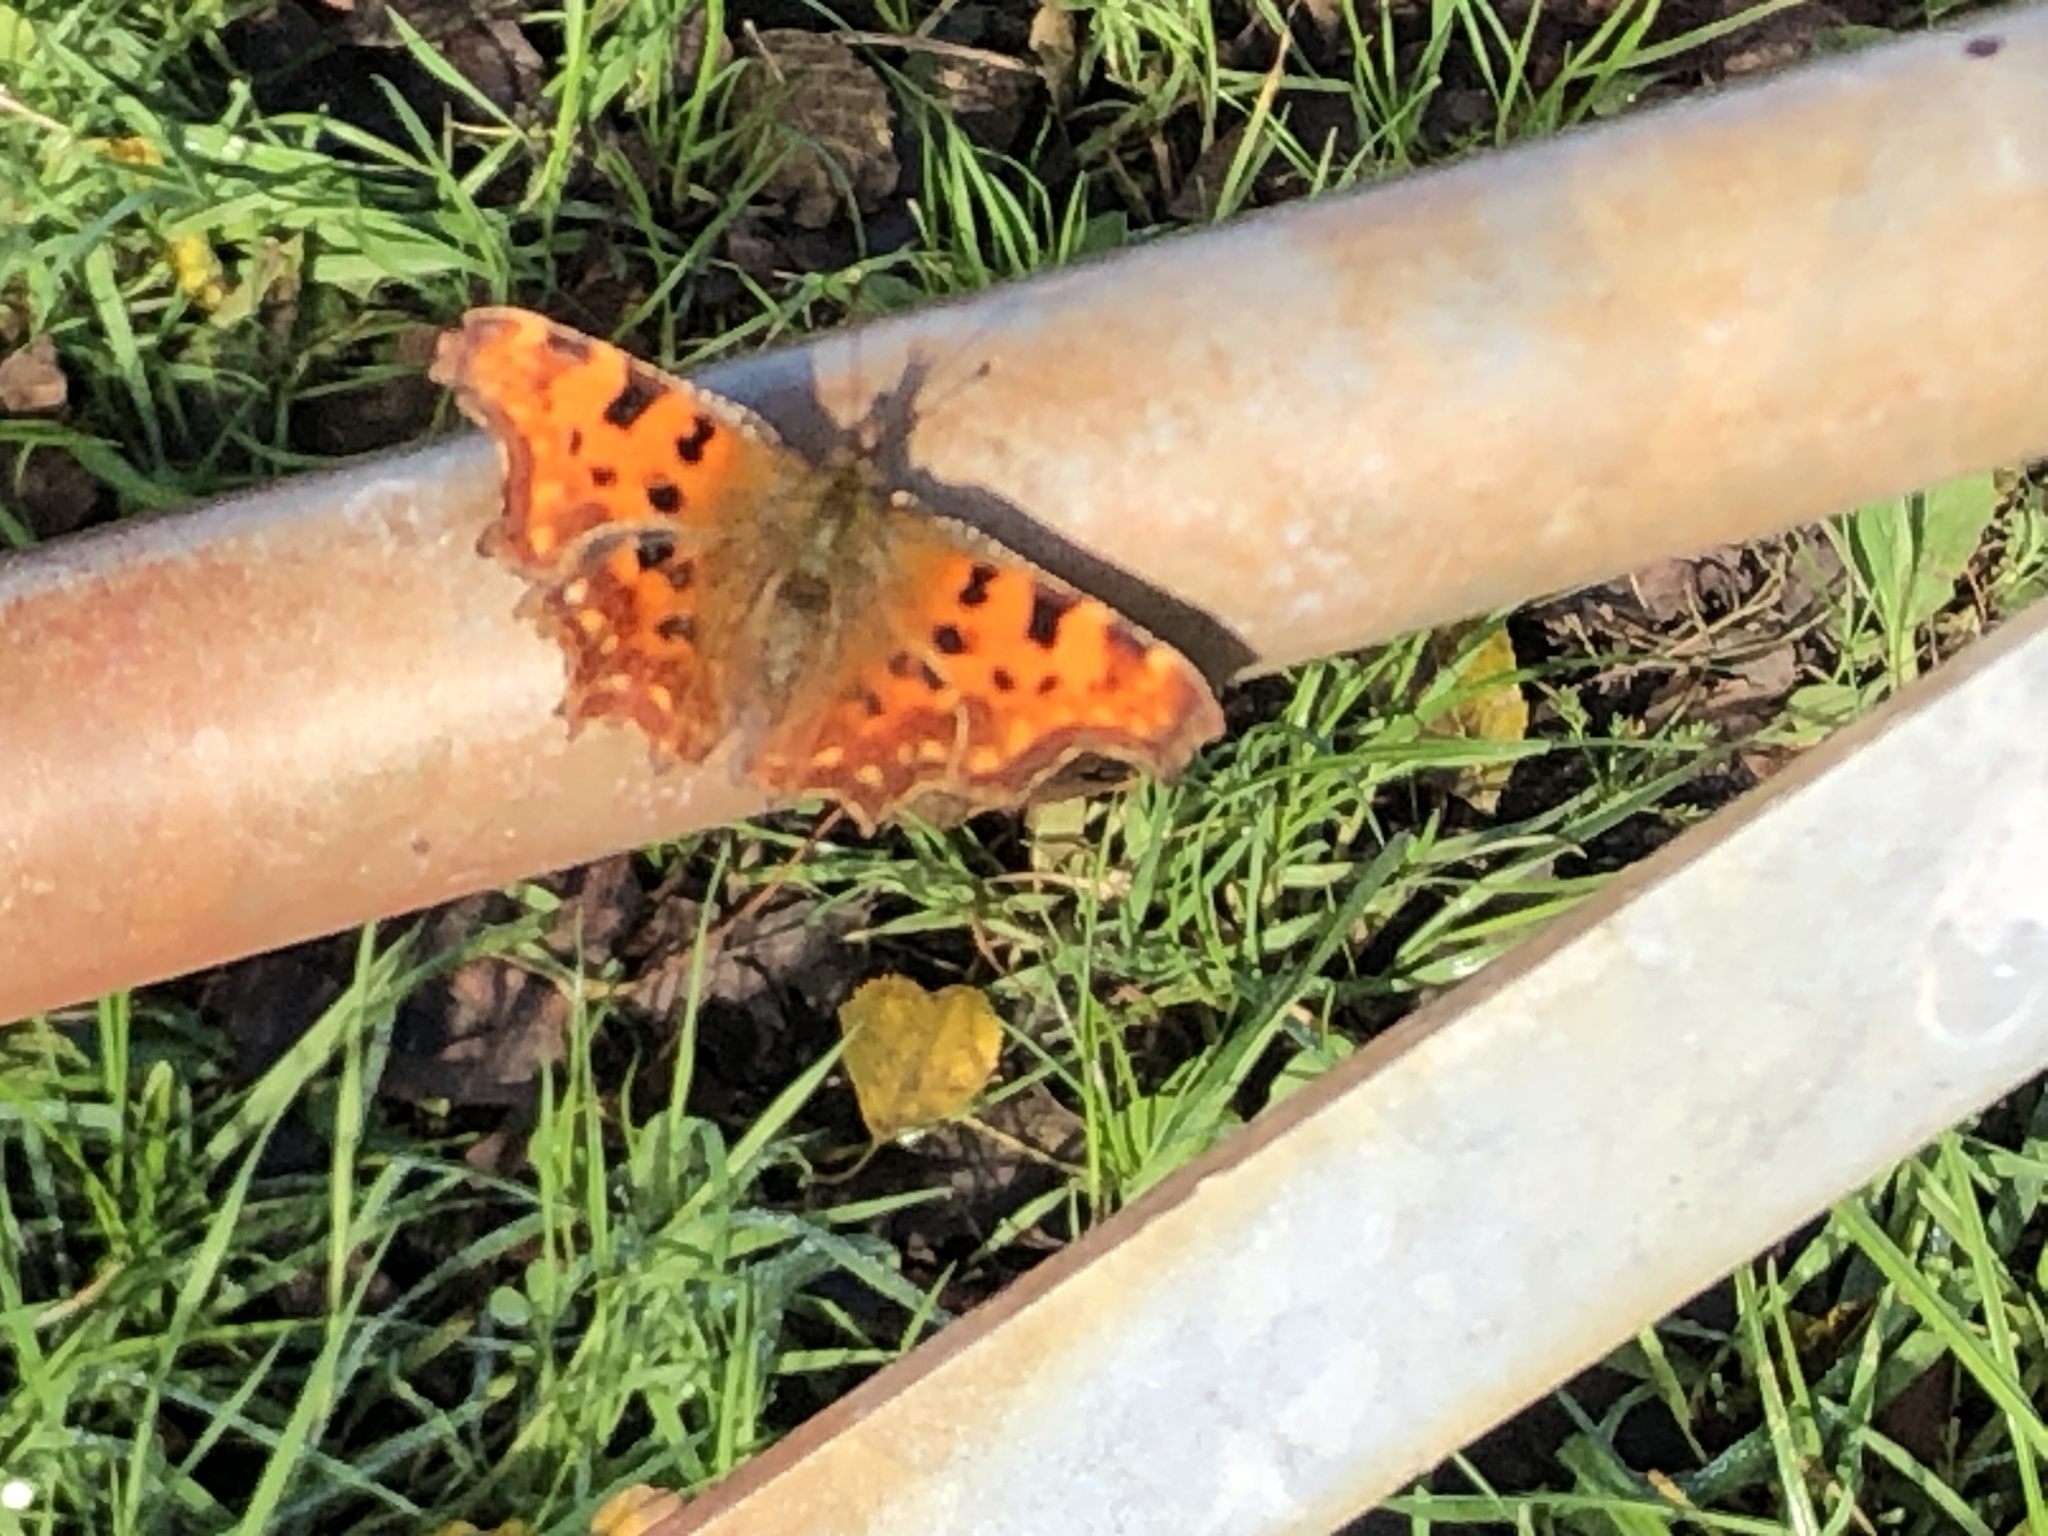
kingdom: Animalia
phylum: Arthropoda
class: Insecta
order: Lepidoptera
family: Nymphalidae
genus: Polygonia
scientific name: Polygonia c-album
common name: Comma
